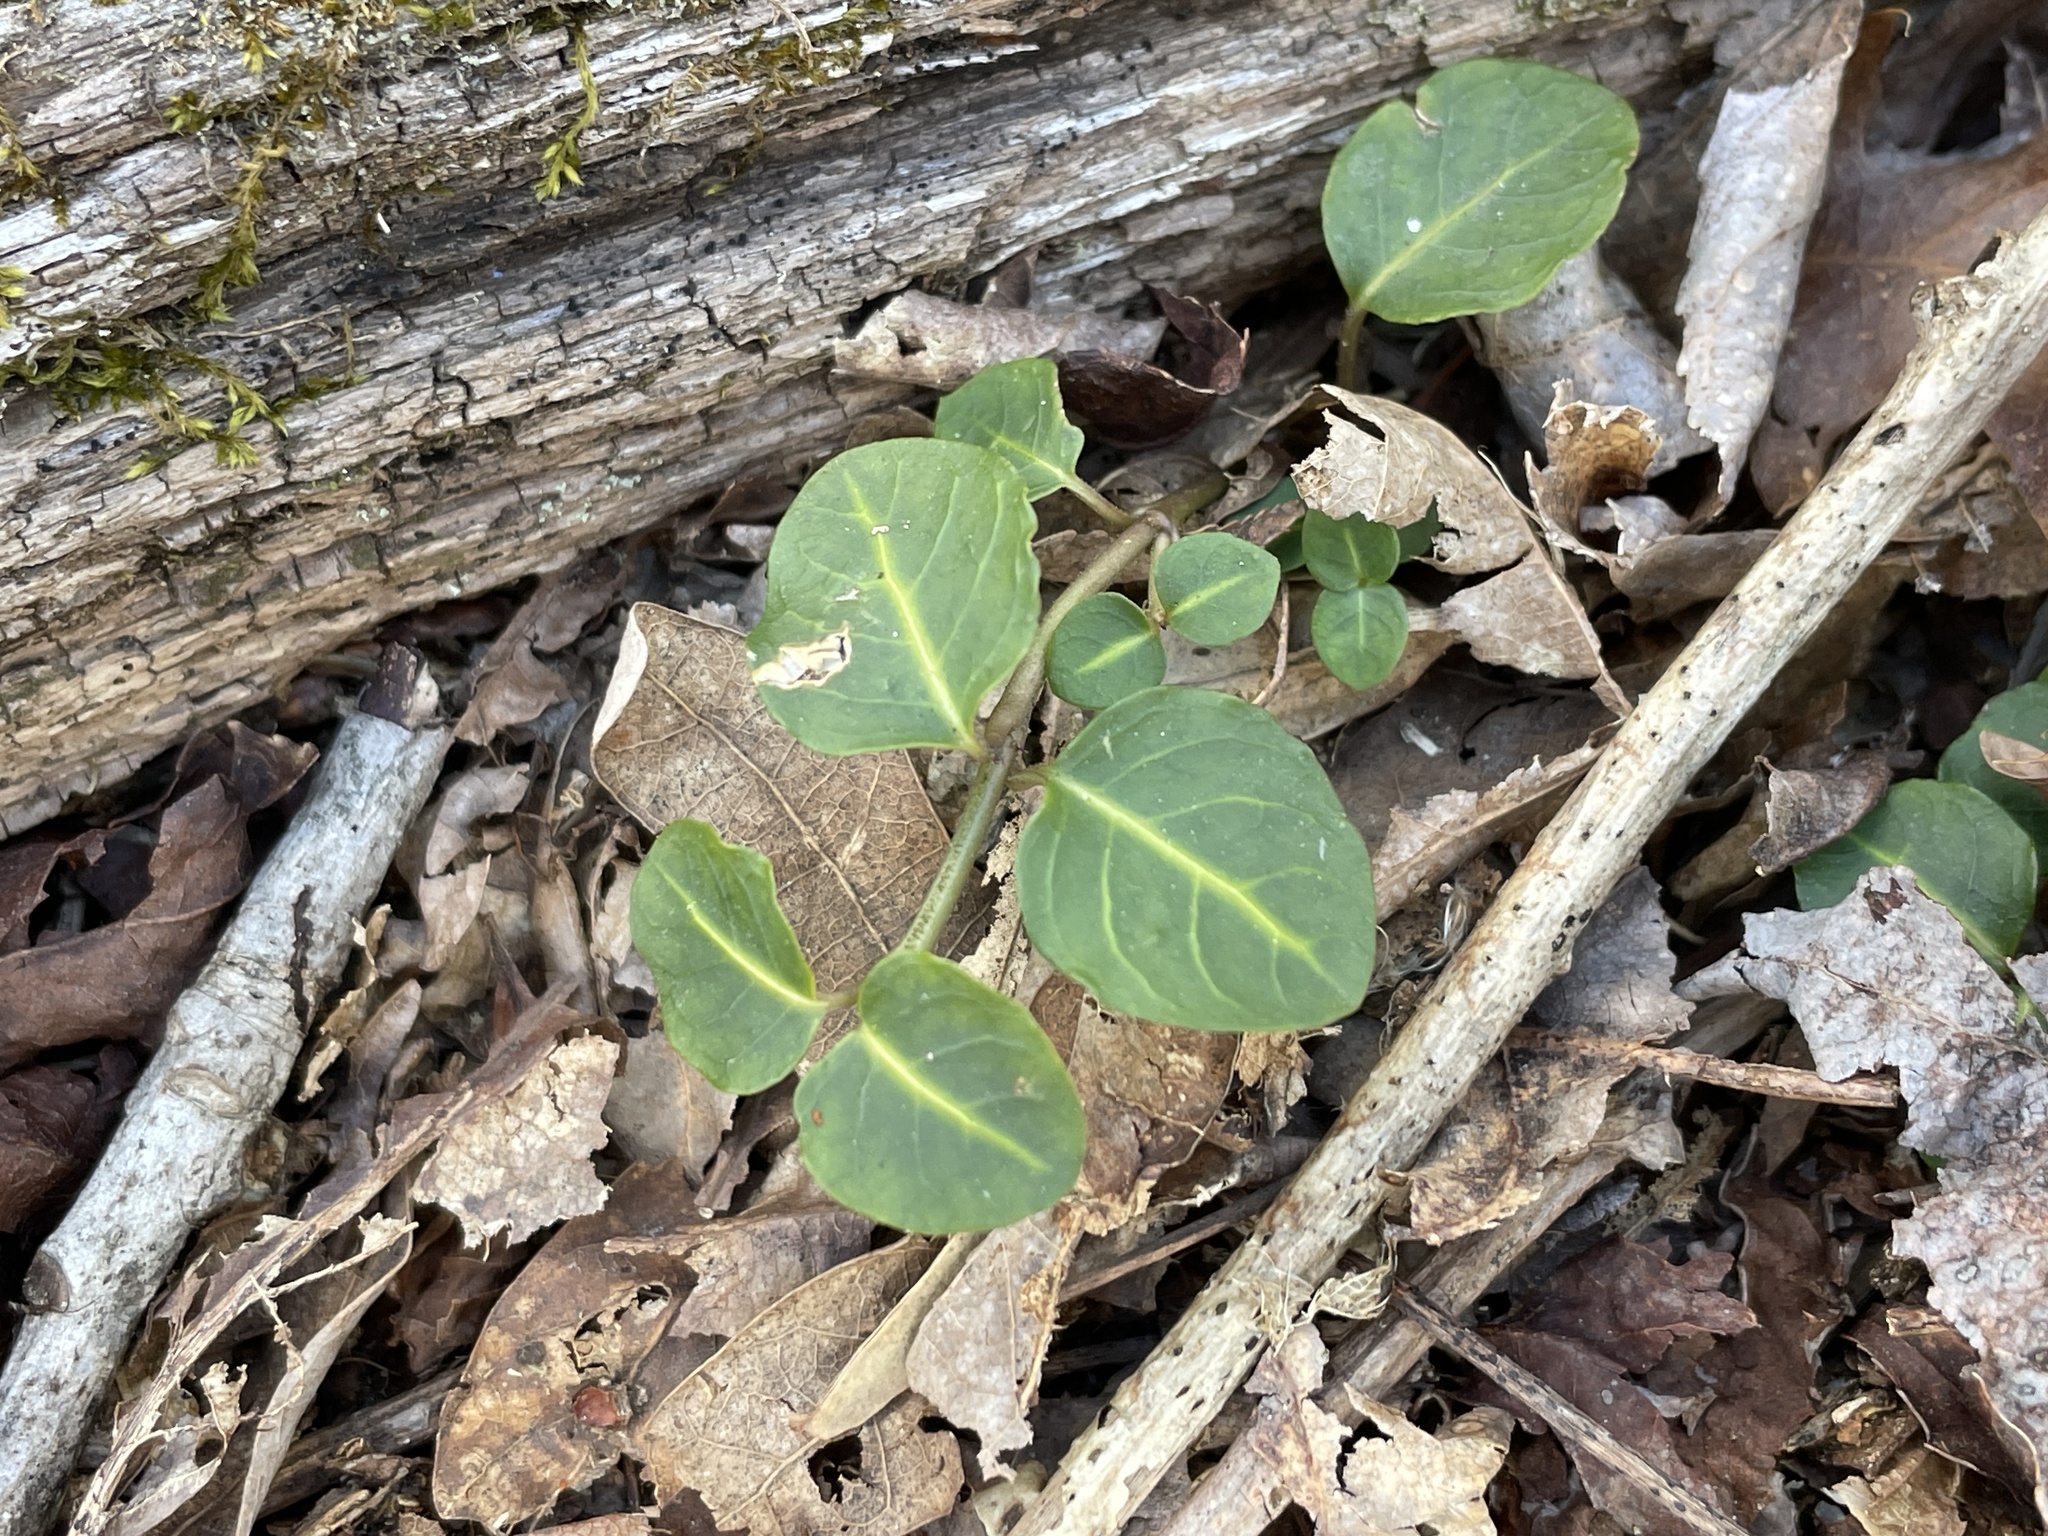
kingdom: Plantae
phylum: Tracheophyta
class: Magnoliopsida
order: Gentianales
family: Rubiaceae
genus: Mitchella
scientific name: Mitchella repens
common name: Partridge-berry
